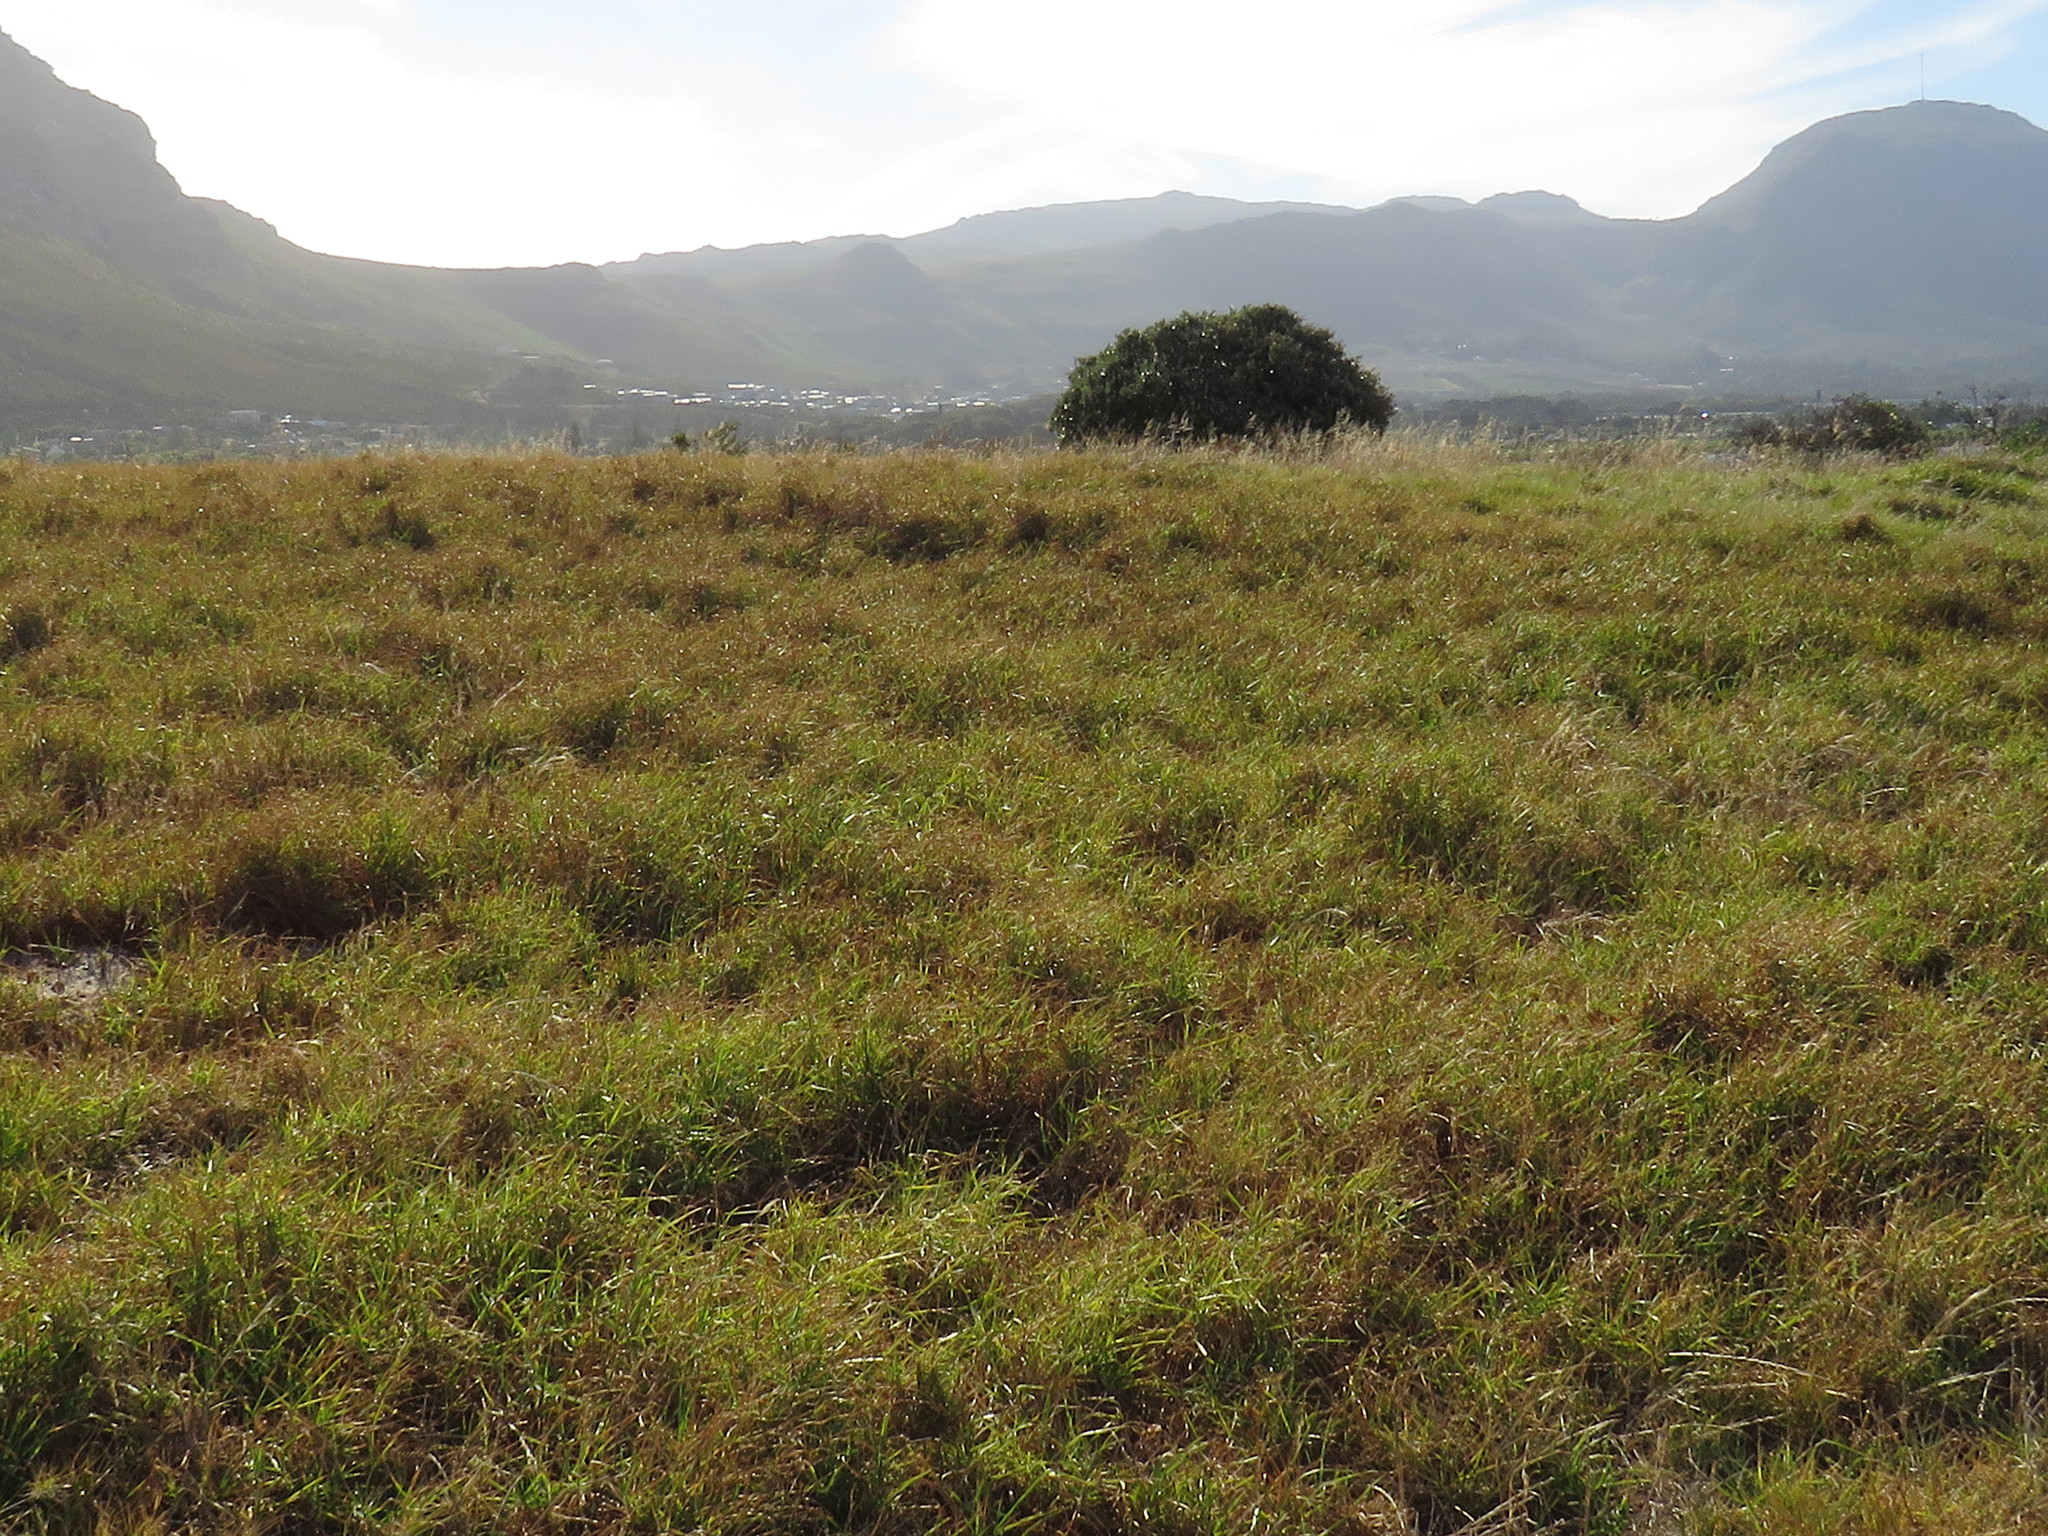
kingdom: Plantae
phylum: Tracheophyta
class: Liliopsida
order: Poales
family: Poaceae
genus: Cenchrus
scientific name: Cenchrus clandestinus
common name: Kikuyugrass
